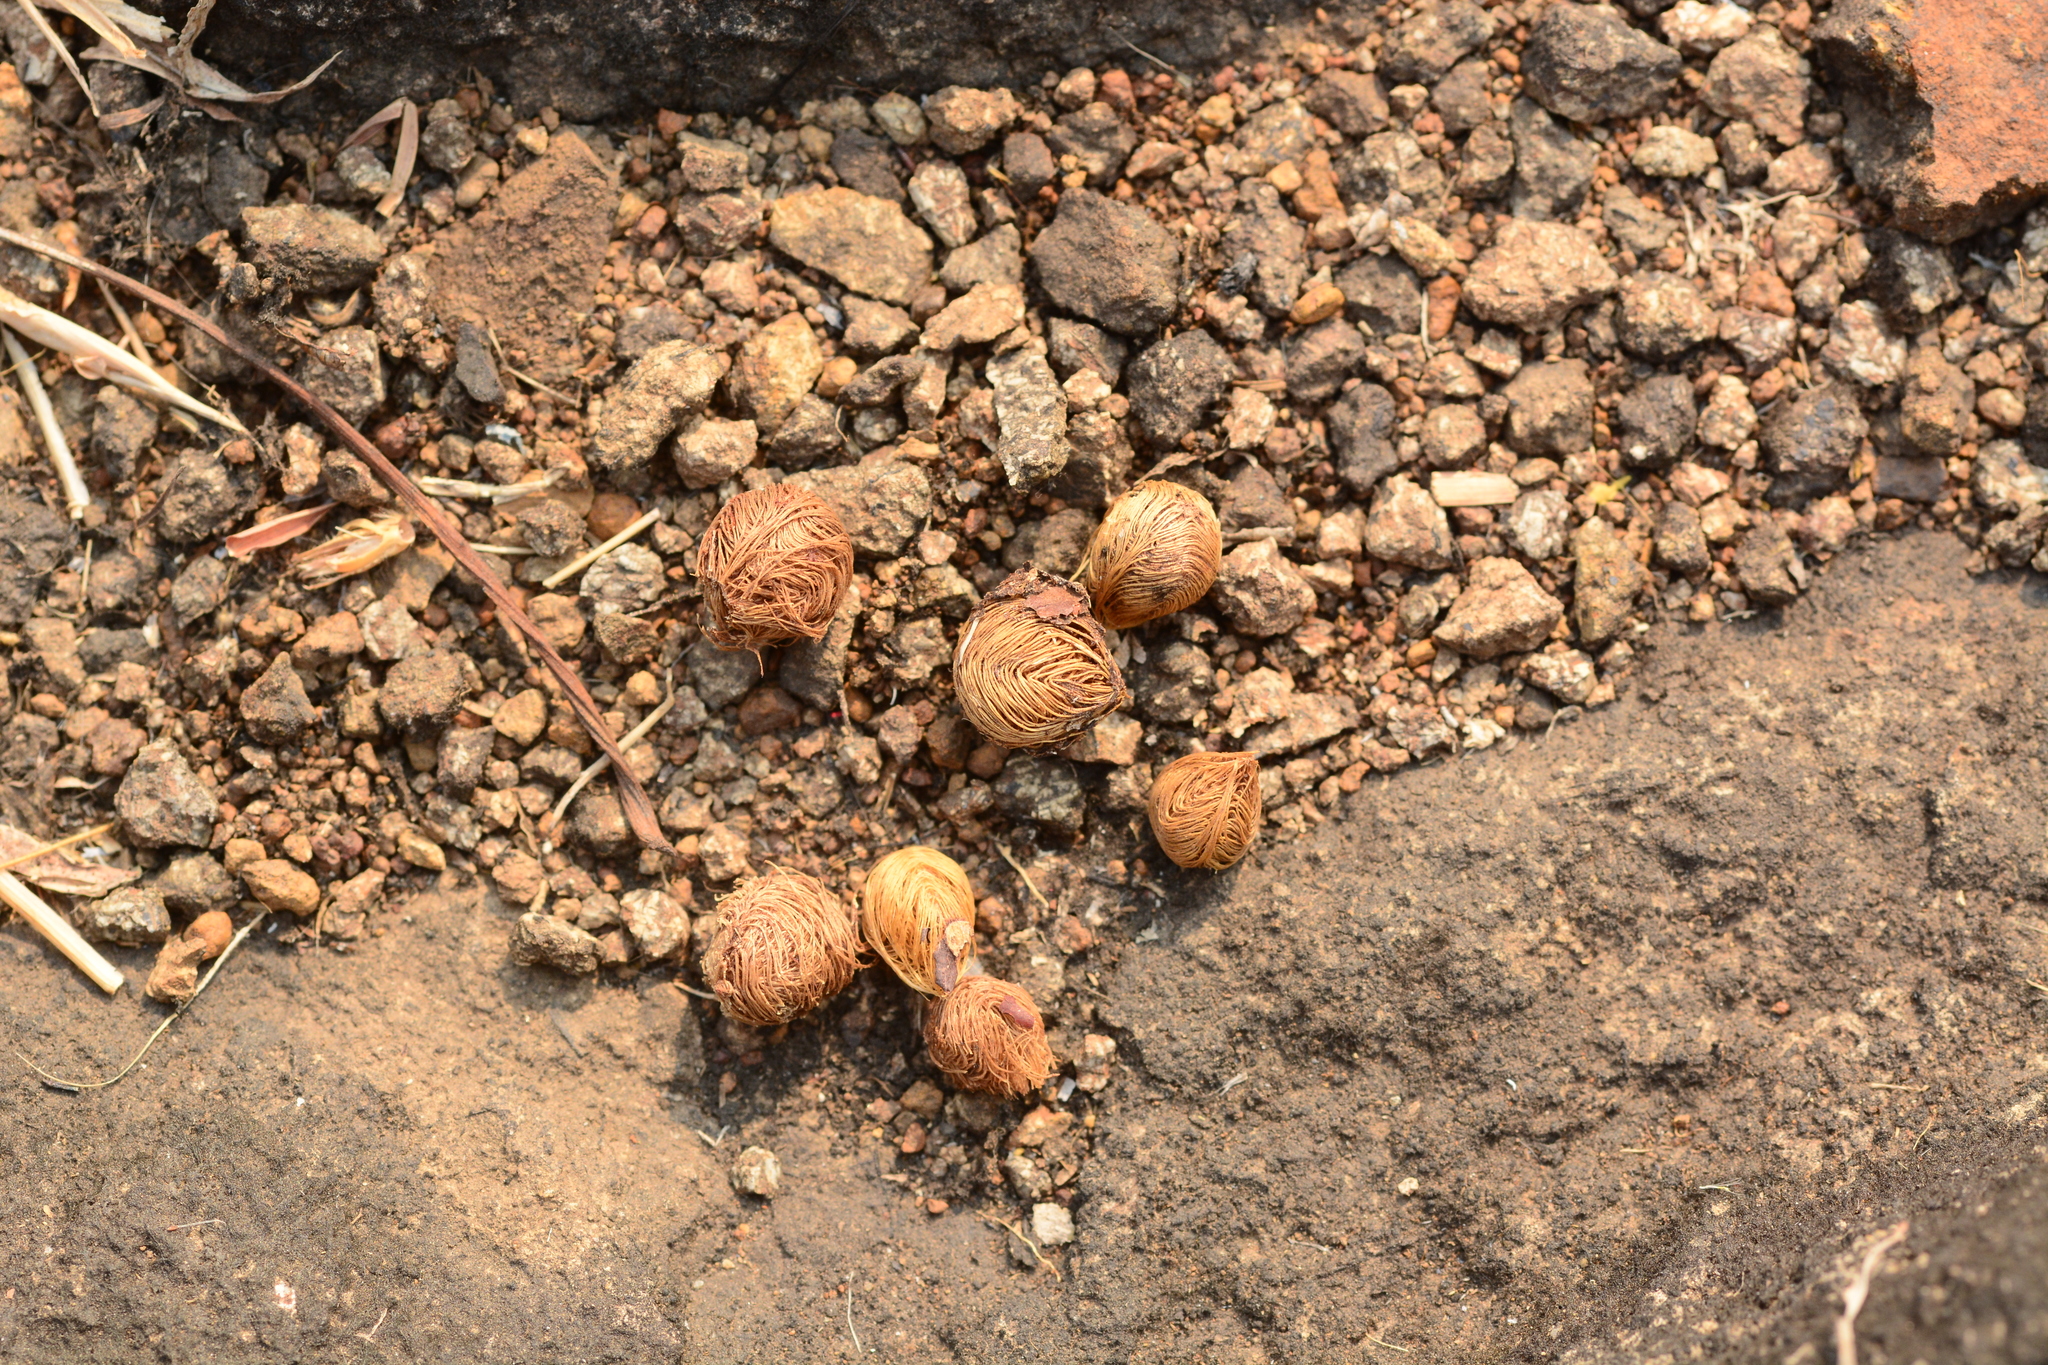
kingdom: Plantae
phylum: Tracheophyta
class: Magnoliopsida
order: Malvales
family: Malvaceae
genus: Microcos
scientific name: Microcos paniculata
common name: Microcos
